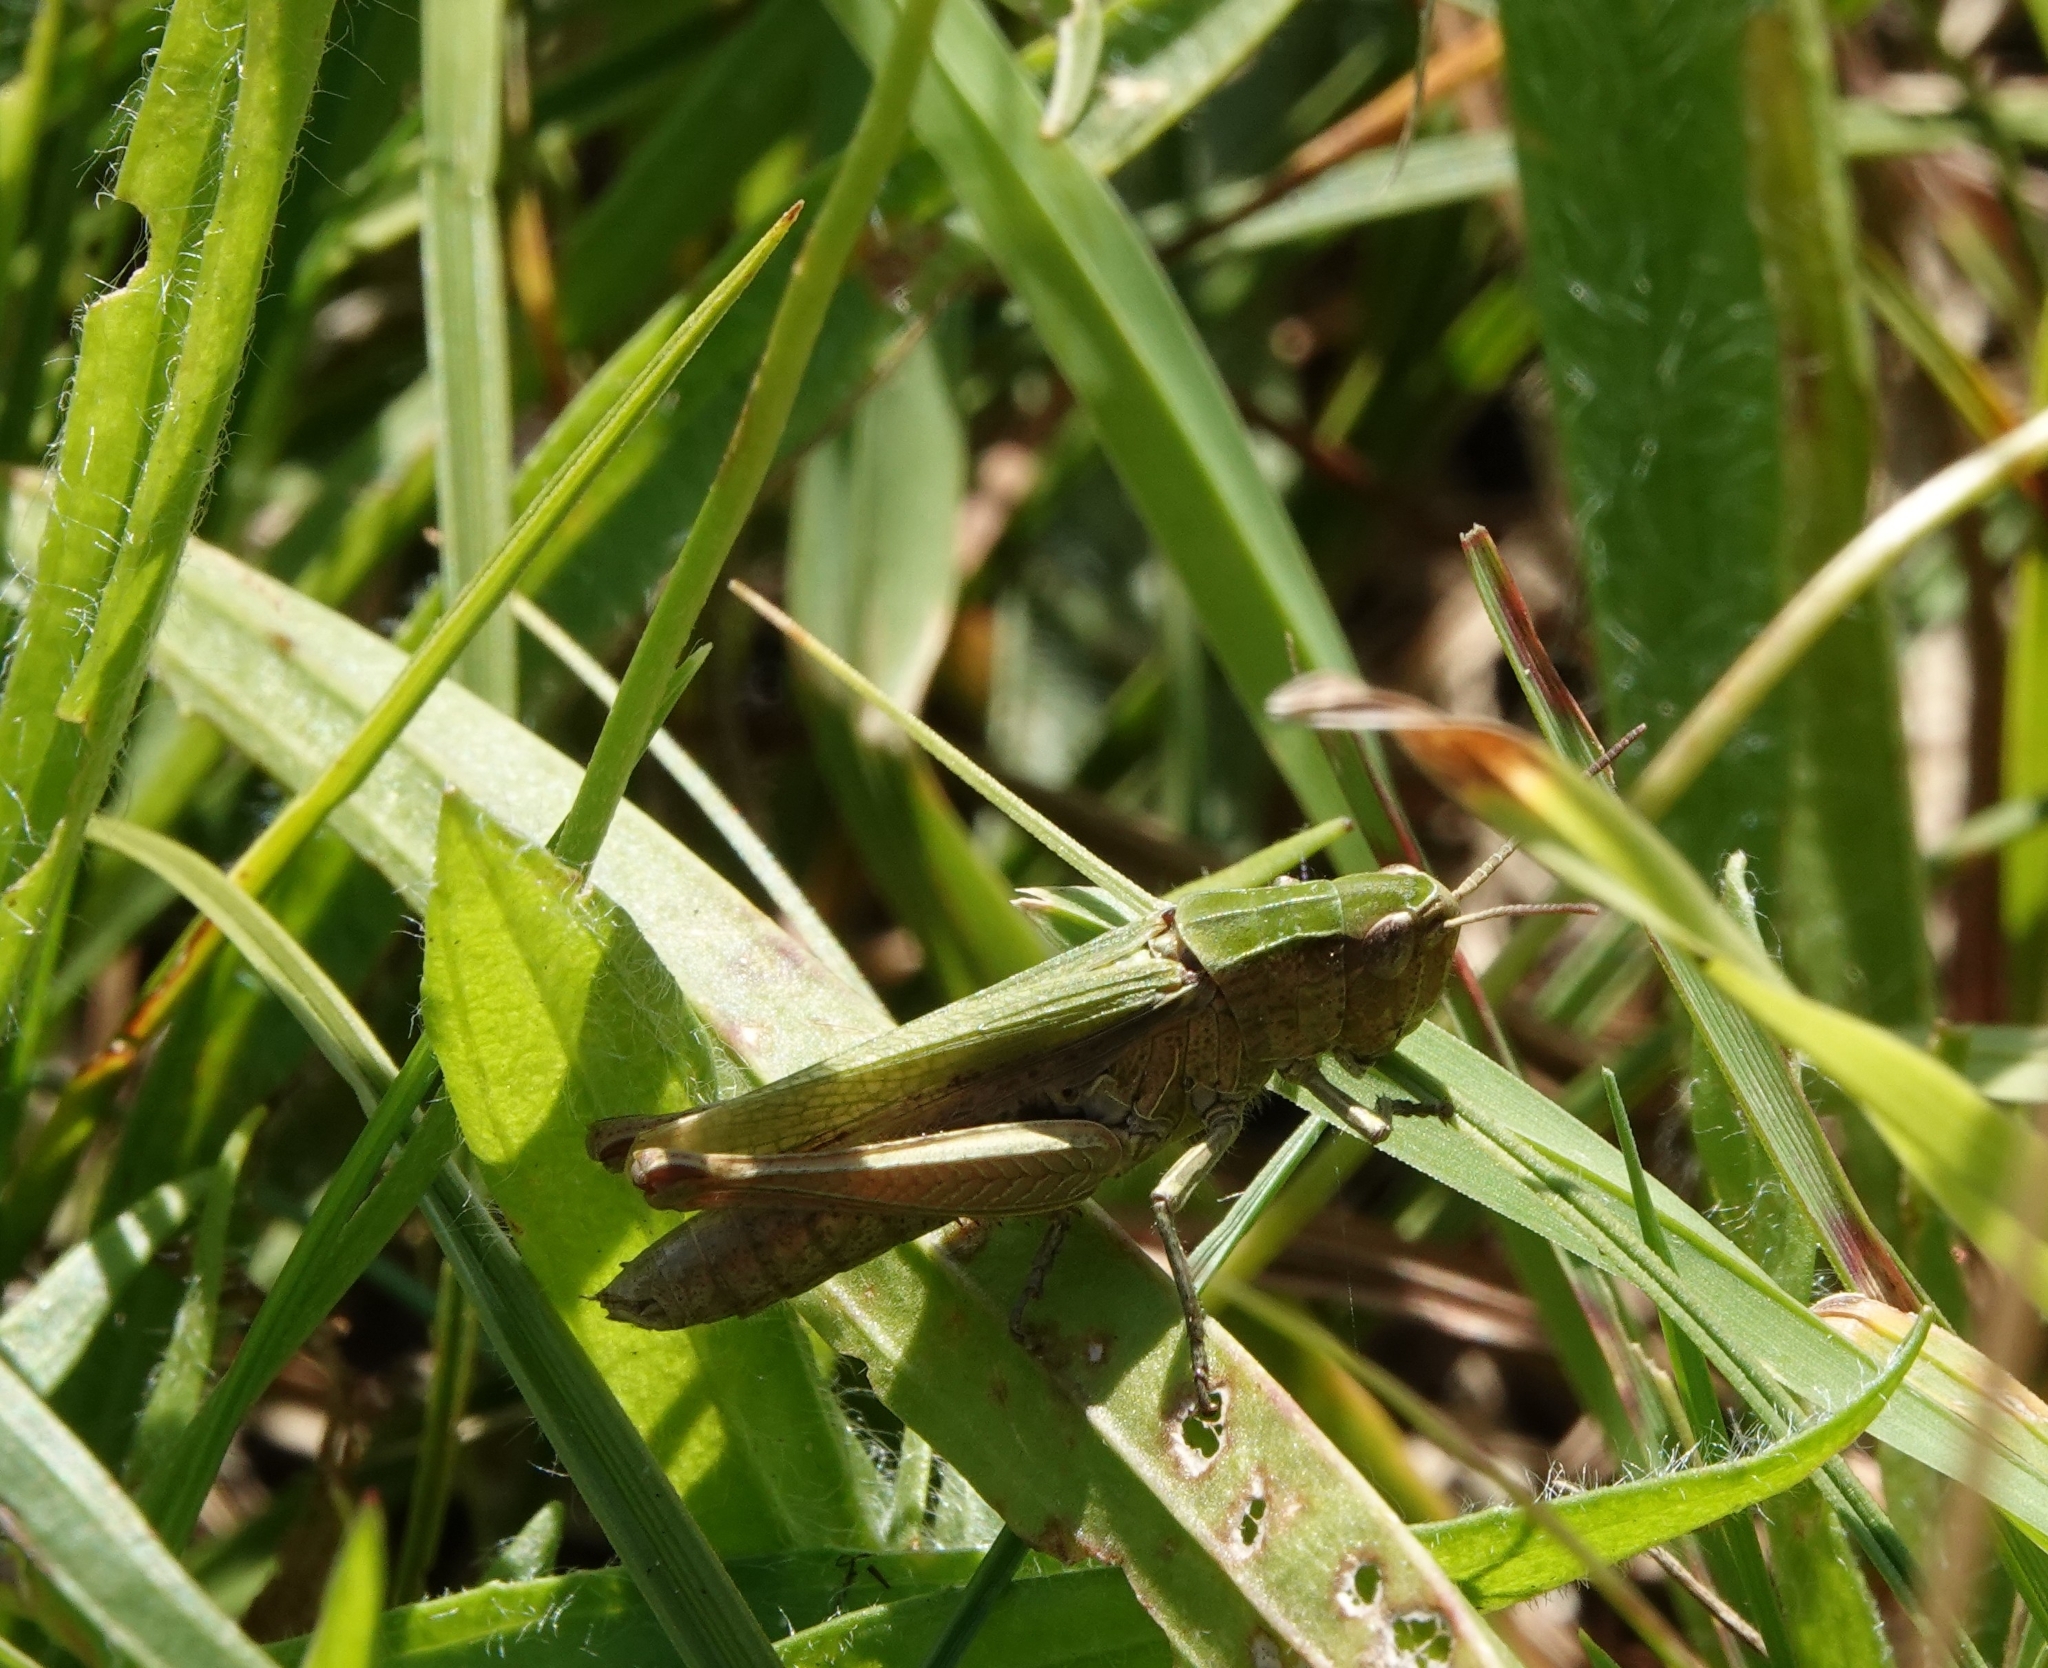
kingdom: Animalia
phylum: Arthropoda
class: Insecta
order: Orthoptera
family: Acrididae
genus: Chorthippus
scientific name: Chorthippus dorsatus
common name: Steppe grasshopper
